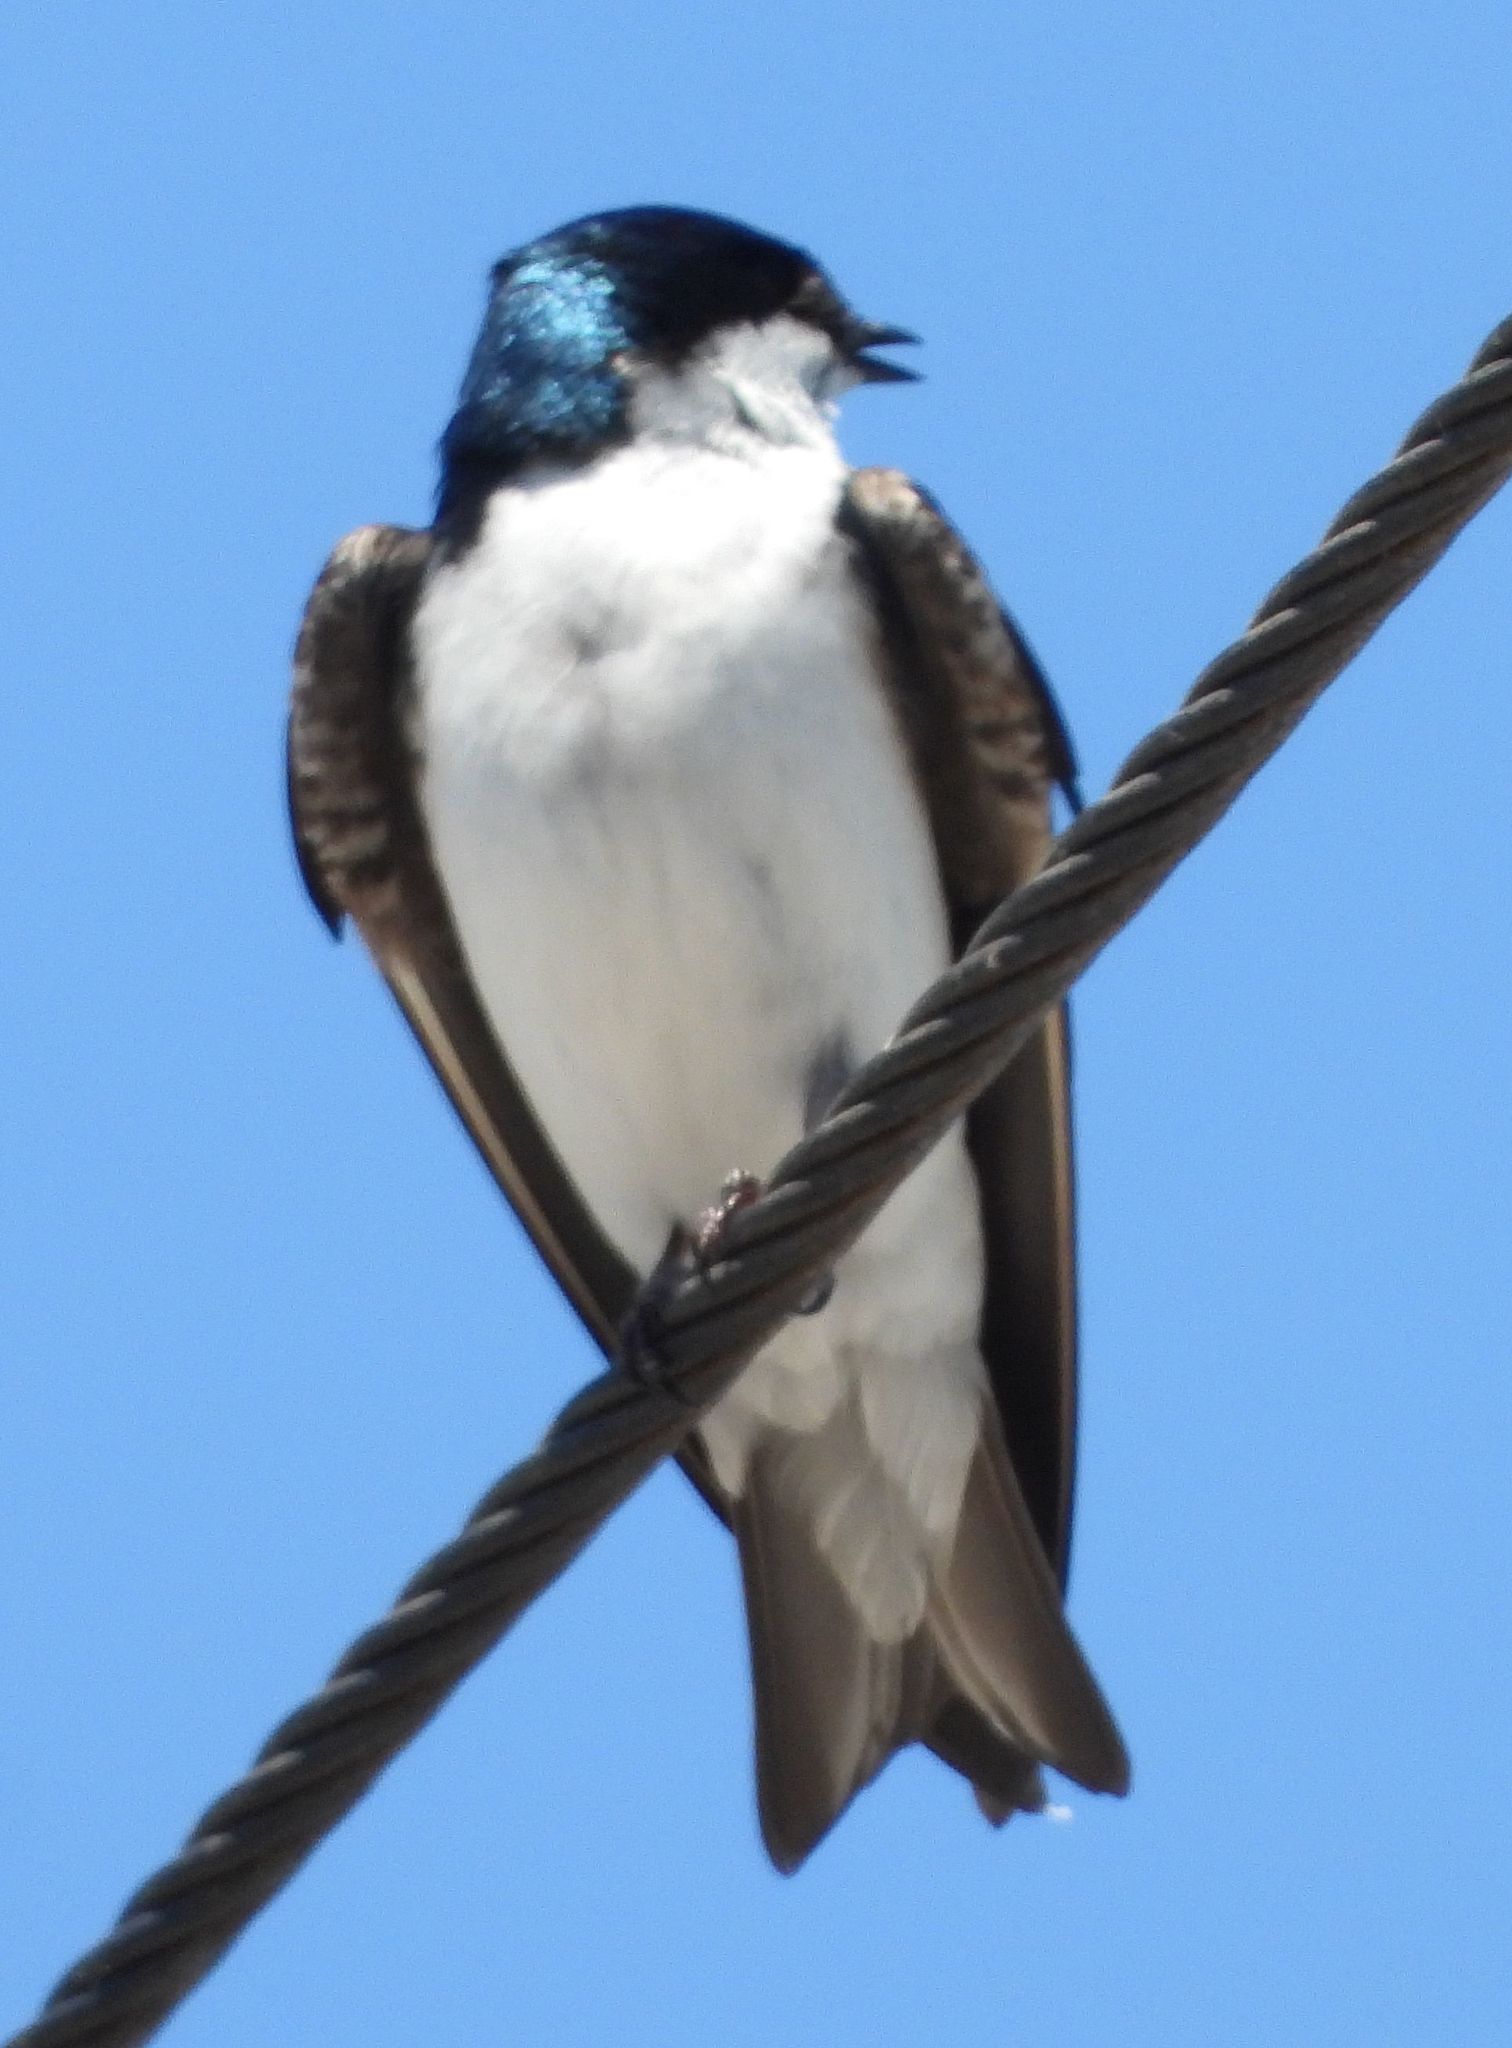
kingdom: Animalia
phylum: Chordata
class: Aves
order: Passeriformes
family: Hirundinidae
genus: Tachycineta
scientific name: Tachycineta bicolor
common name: Tree swallow
